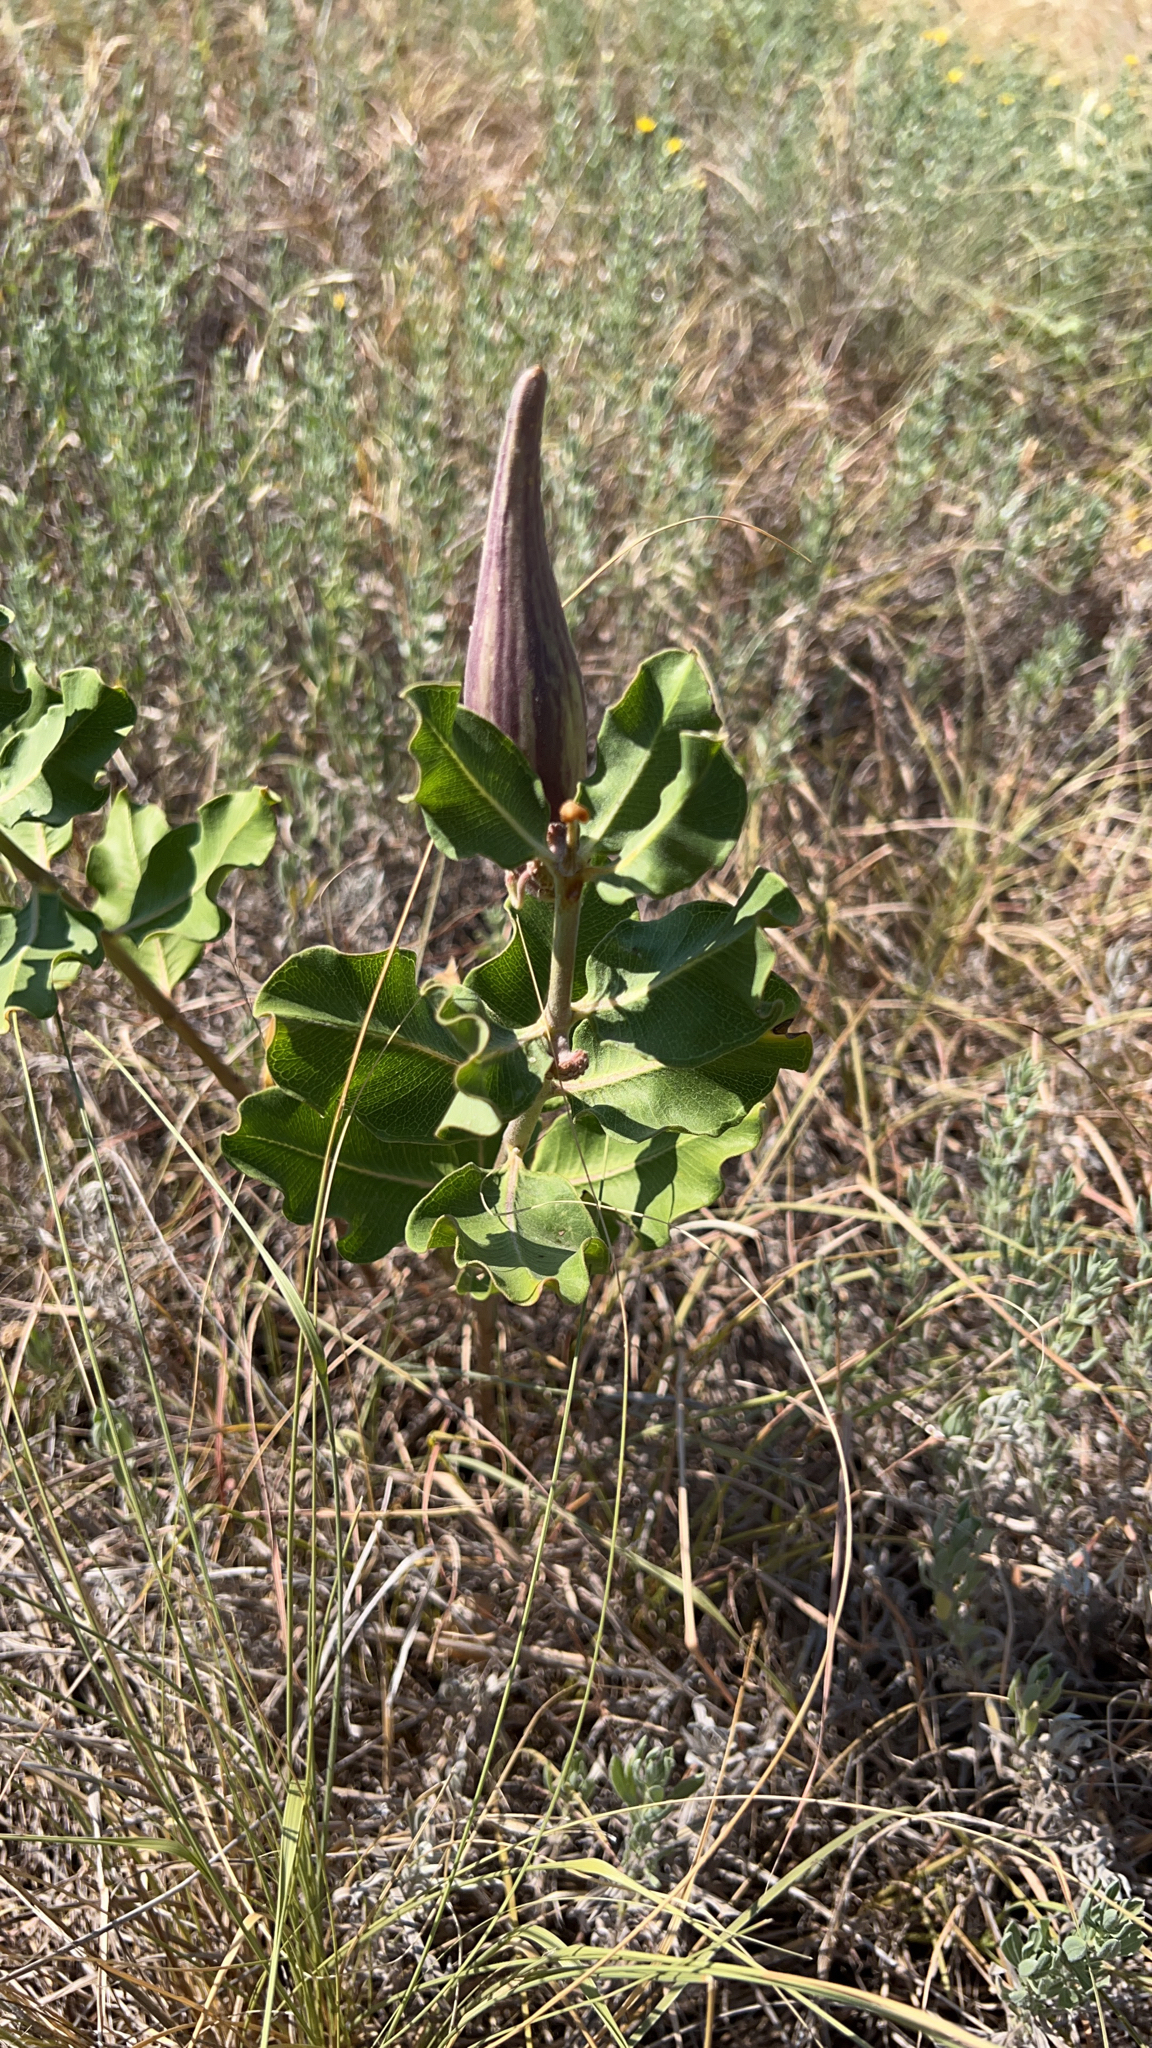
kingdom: Plantae
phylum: Tracheophyta
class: Magnoliopsida
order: Gentianales
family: Apocynaceae
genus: Asclepias
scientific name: Asclepias viridiflora
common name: Green comet milkweed
